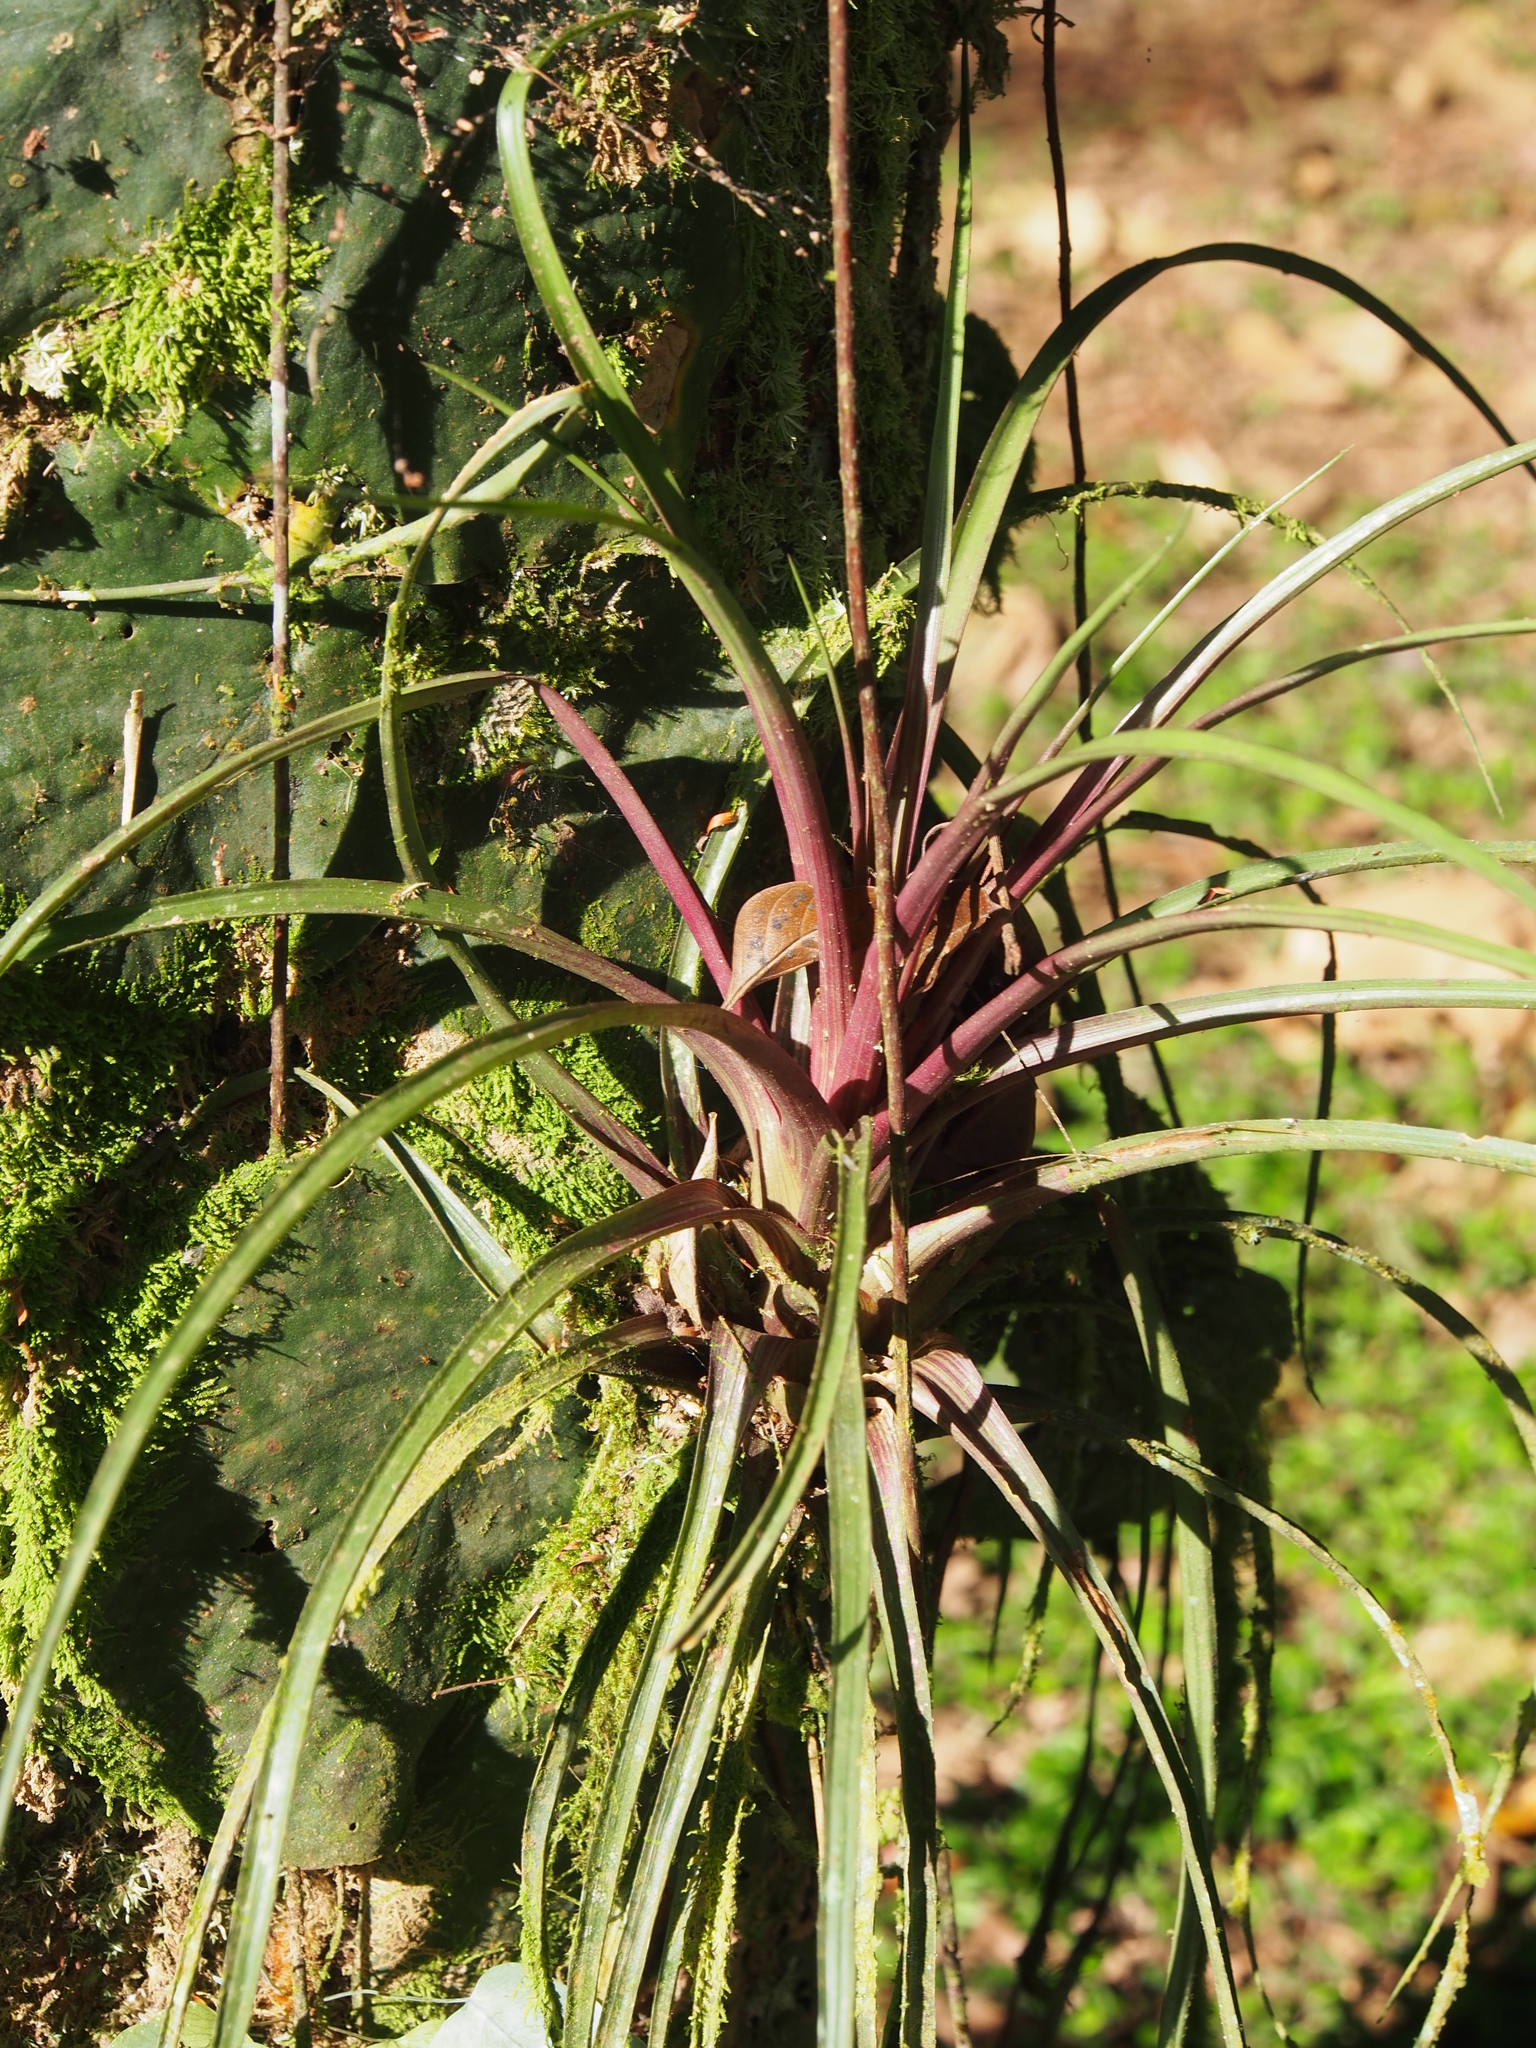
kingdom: Plantae
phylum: Tracheophyta
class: Liliopsida
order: Poales
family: Bromeliaceae
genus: Wallisia
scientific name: Wallisia anceps
